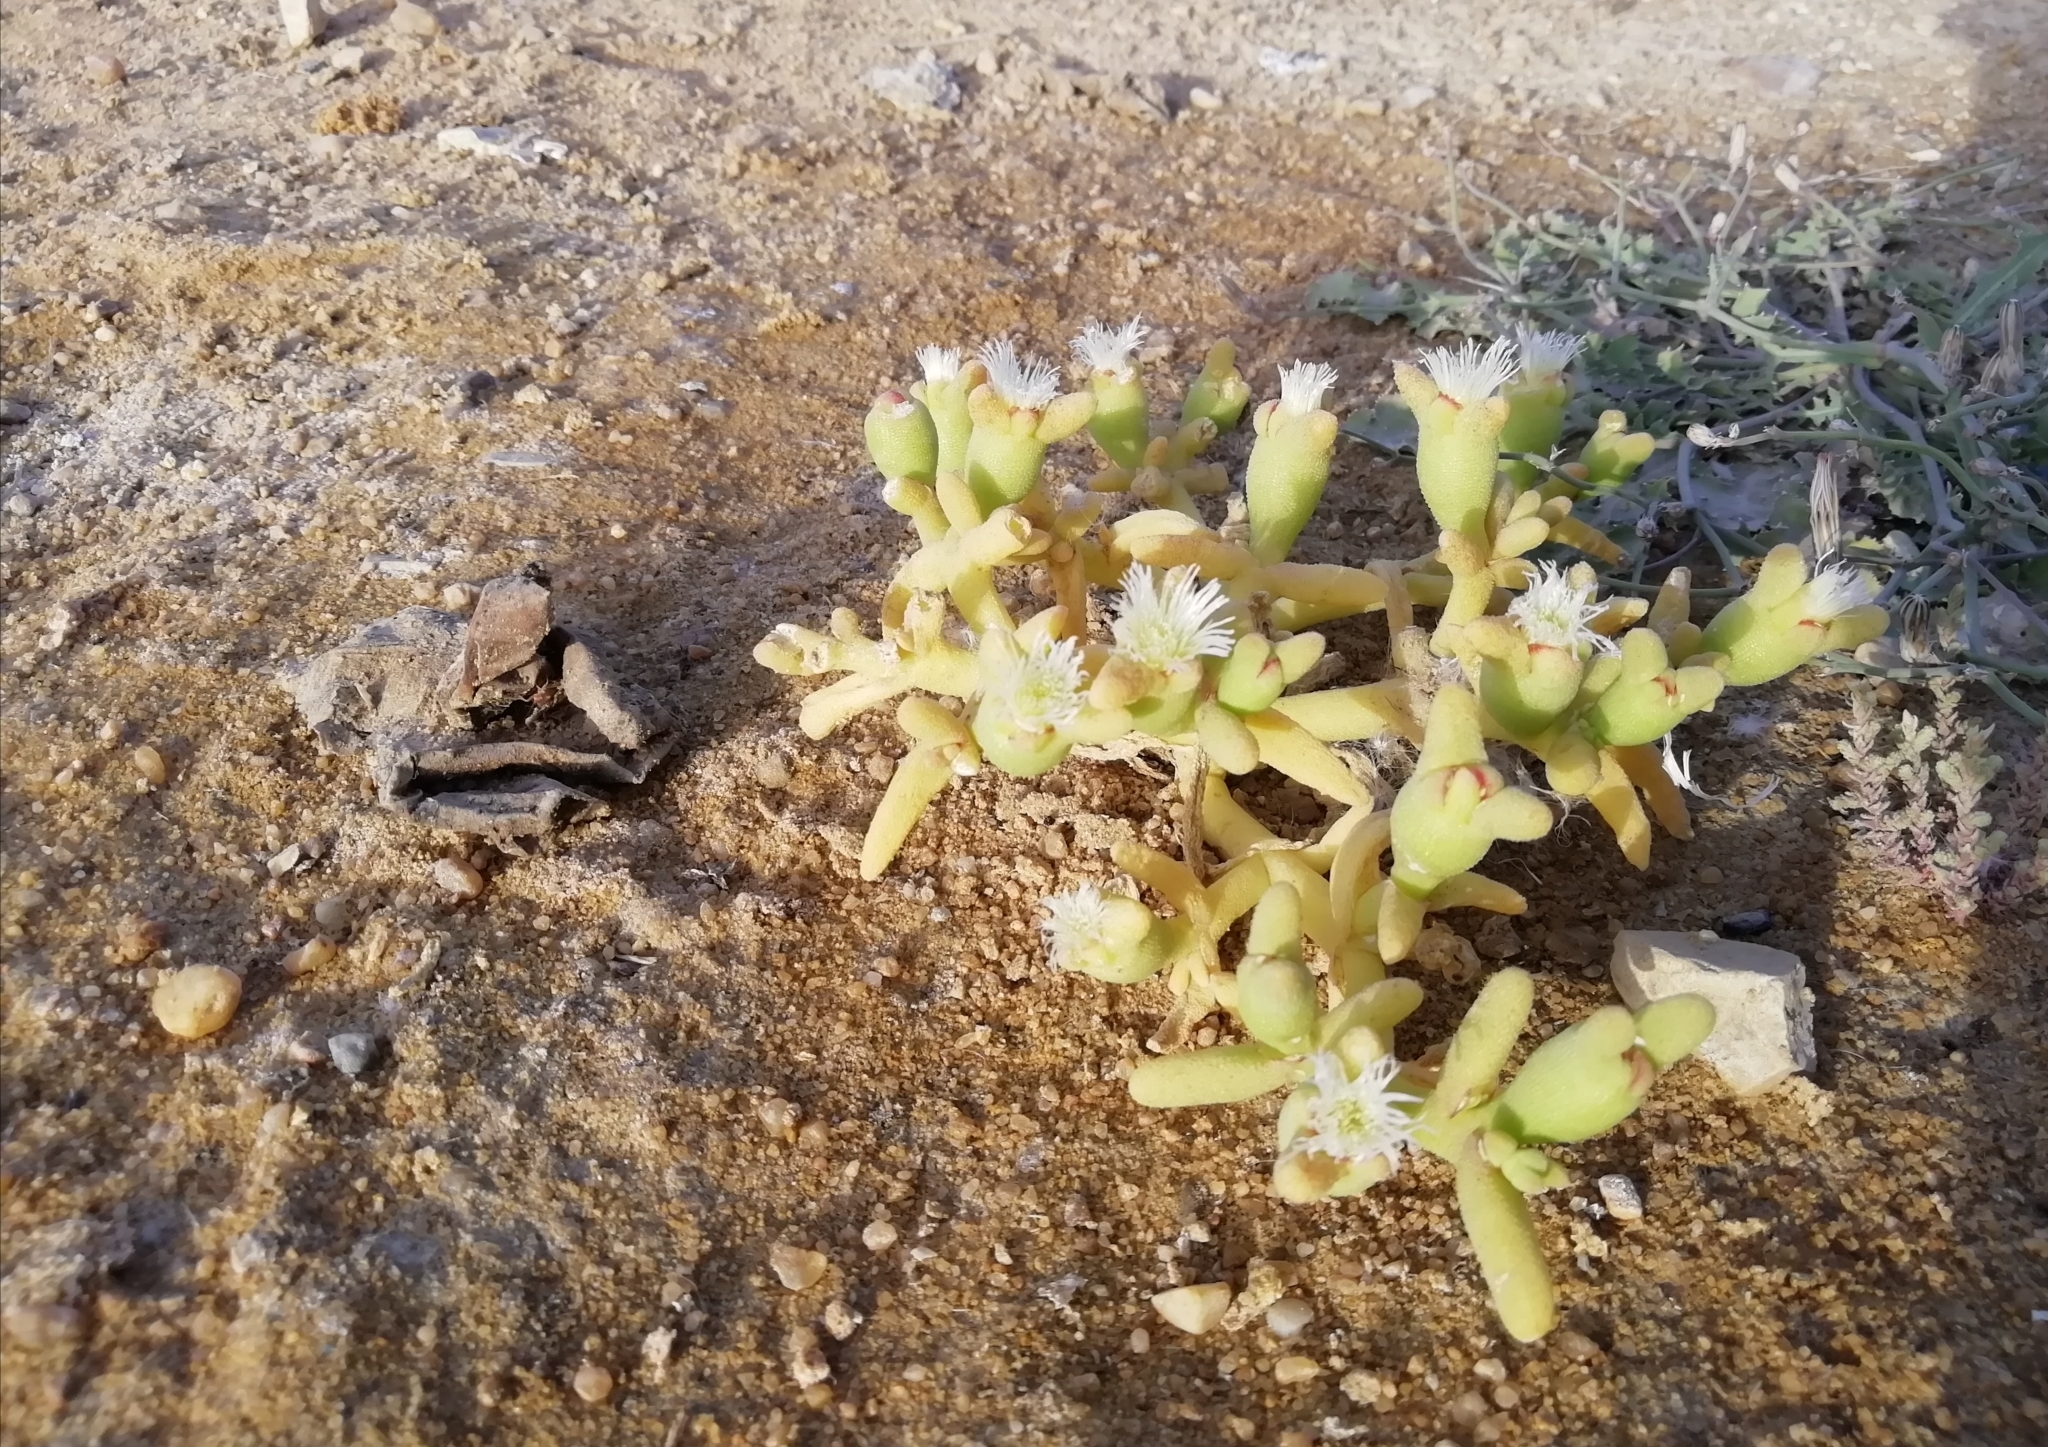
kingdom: Plantae
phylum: Tracheophyta
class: Magnoliopsida
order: Caryophyllales
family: Aizoaceae
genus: Mesembryanthemum
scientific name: Mesembryanthemum cryptanthum
